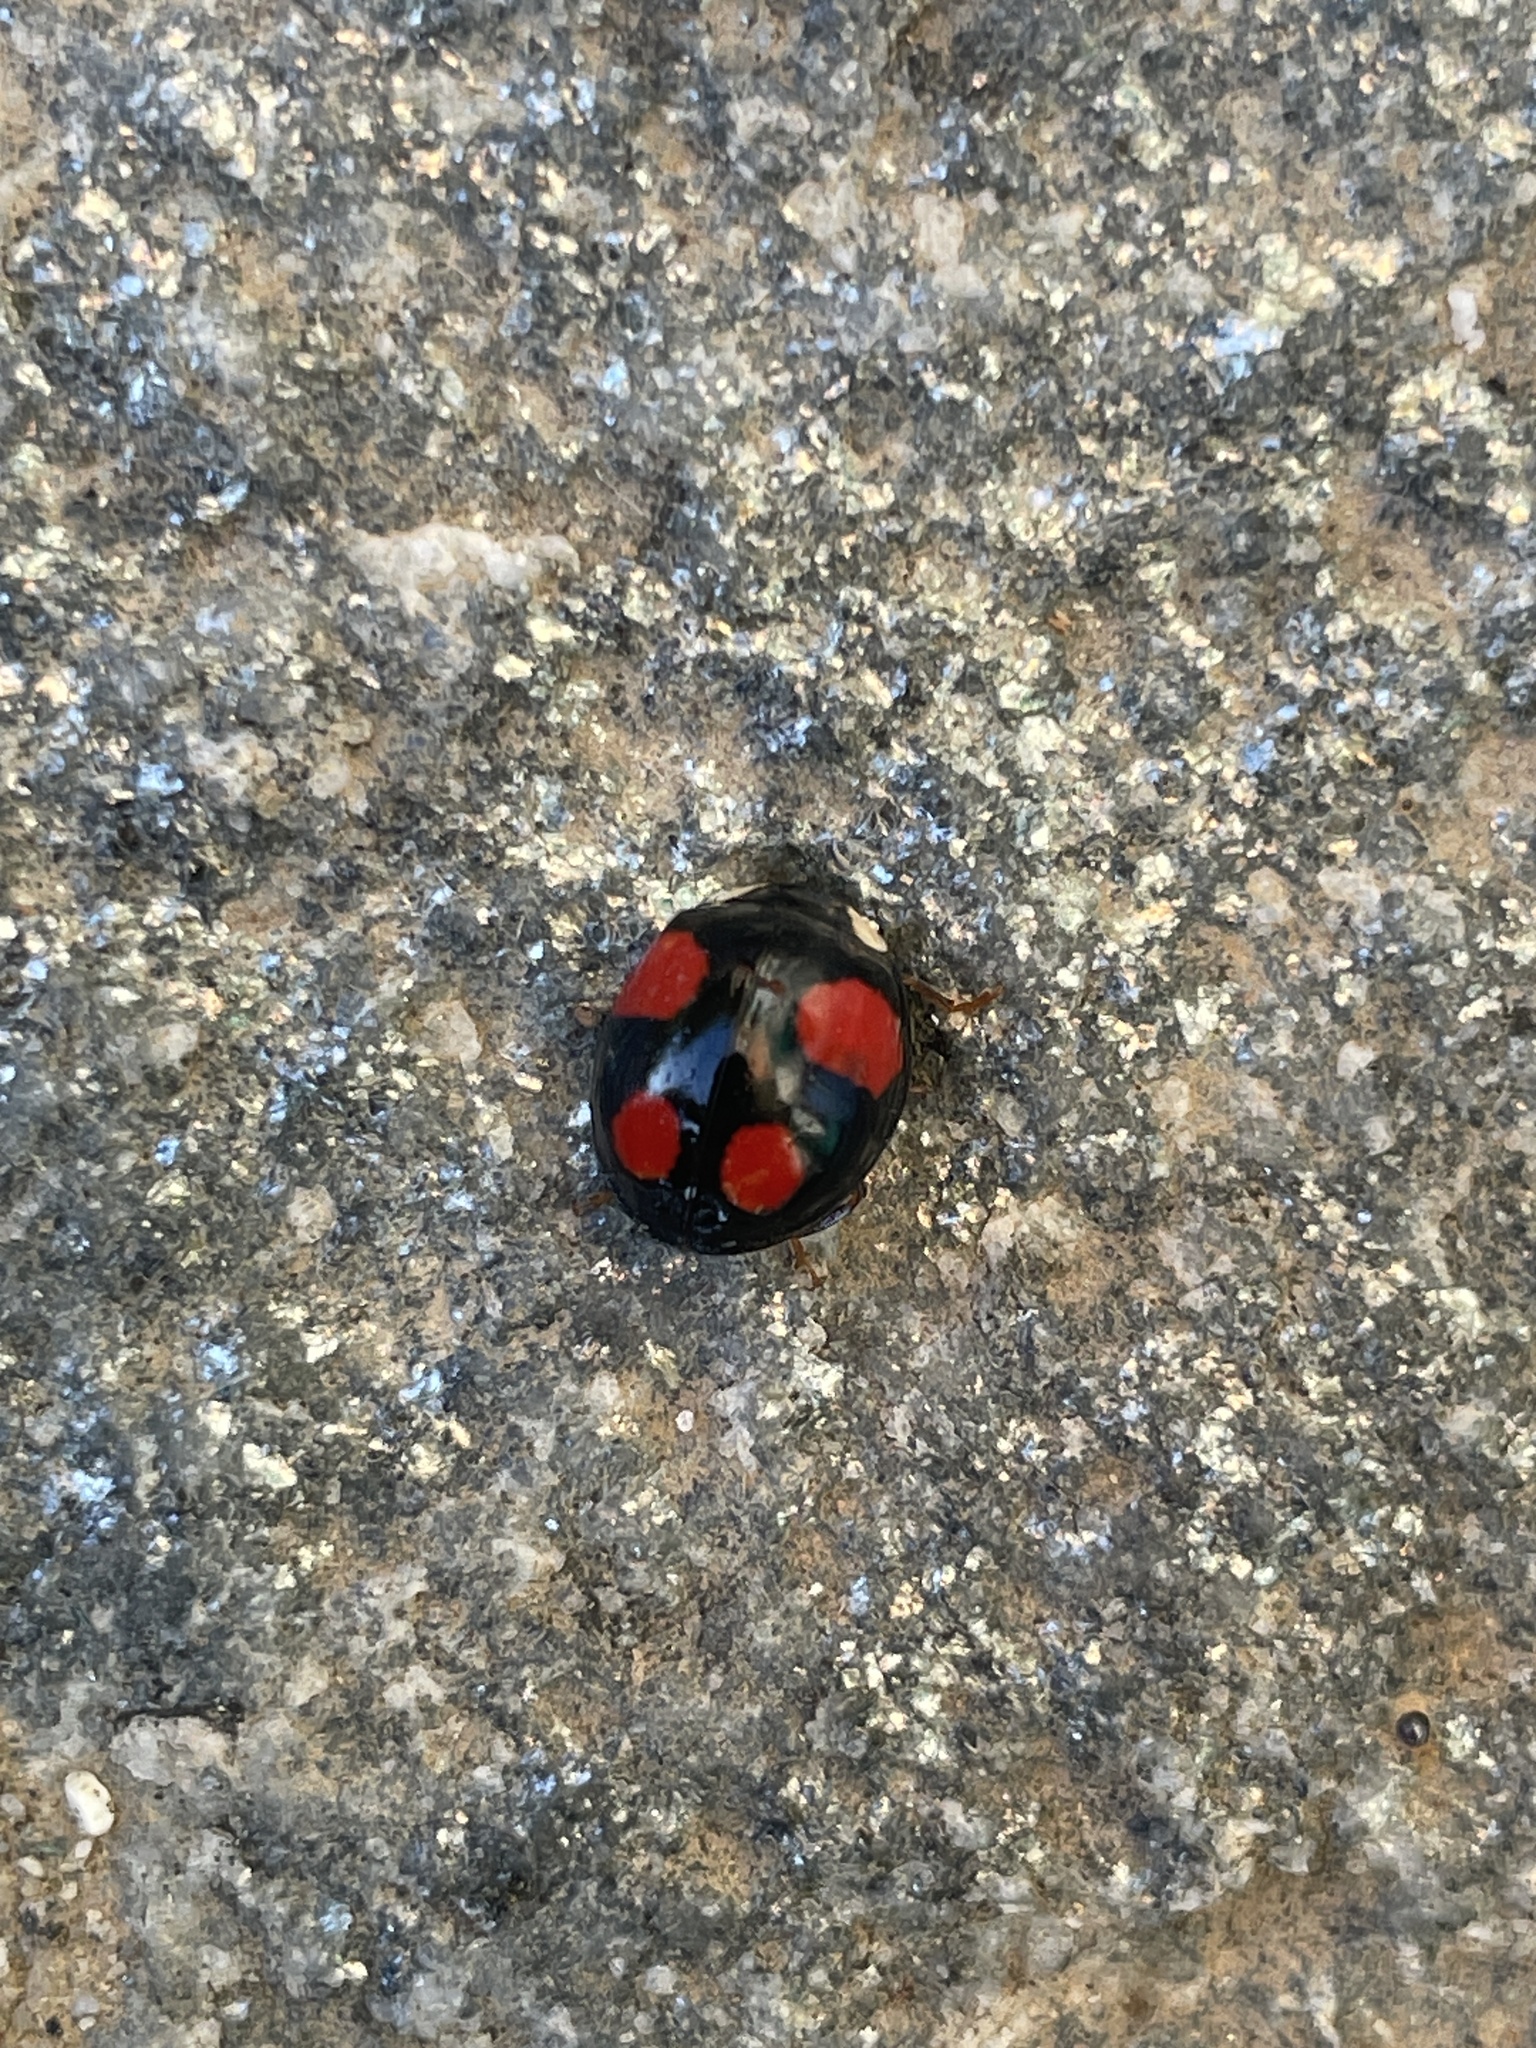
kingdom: Animalia
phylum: Arthropoda
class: Insecta
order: Coleoptera
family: Coccinellidae
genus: Harmonia
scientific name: Harmonia axyridis
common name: Harlequin ladybird
